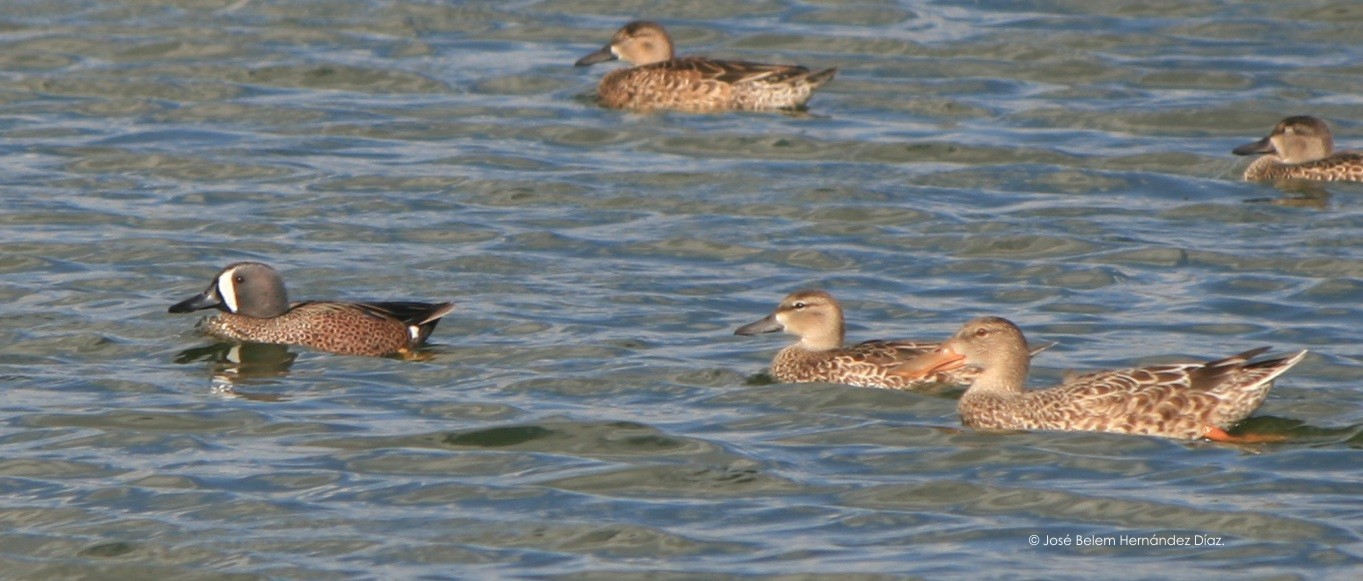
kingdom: Animalia
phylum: Chordata
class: Aves
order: Anseriformes
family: Anatidae
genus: Spatula
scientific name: Spatula discors
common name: Blue-winged teal
